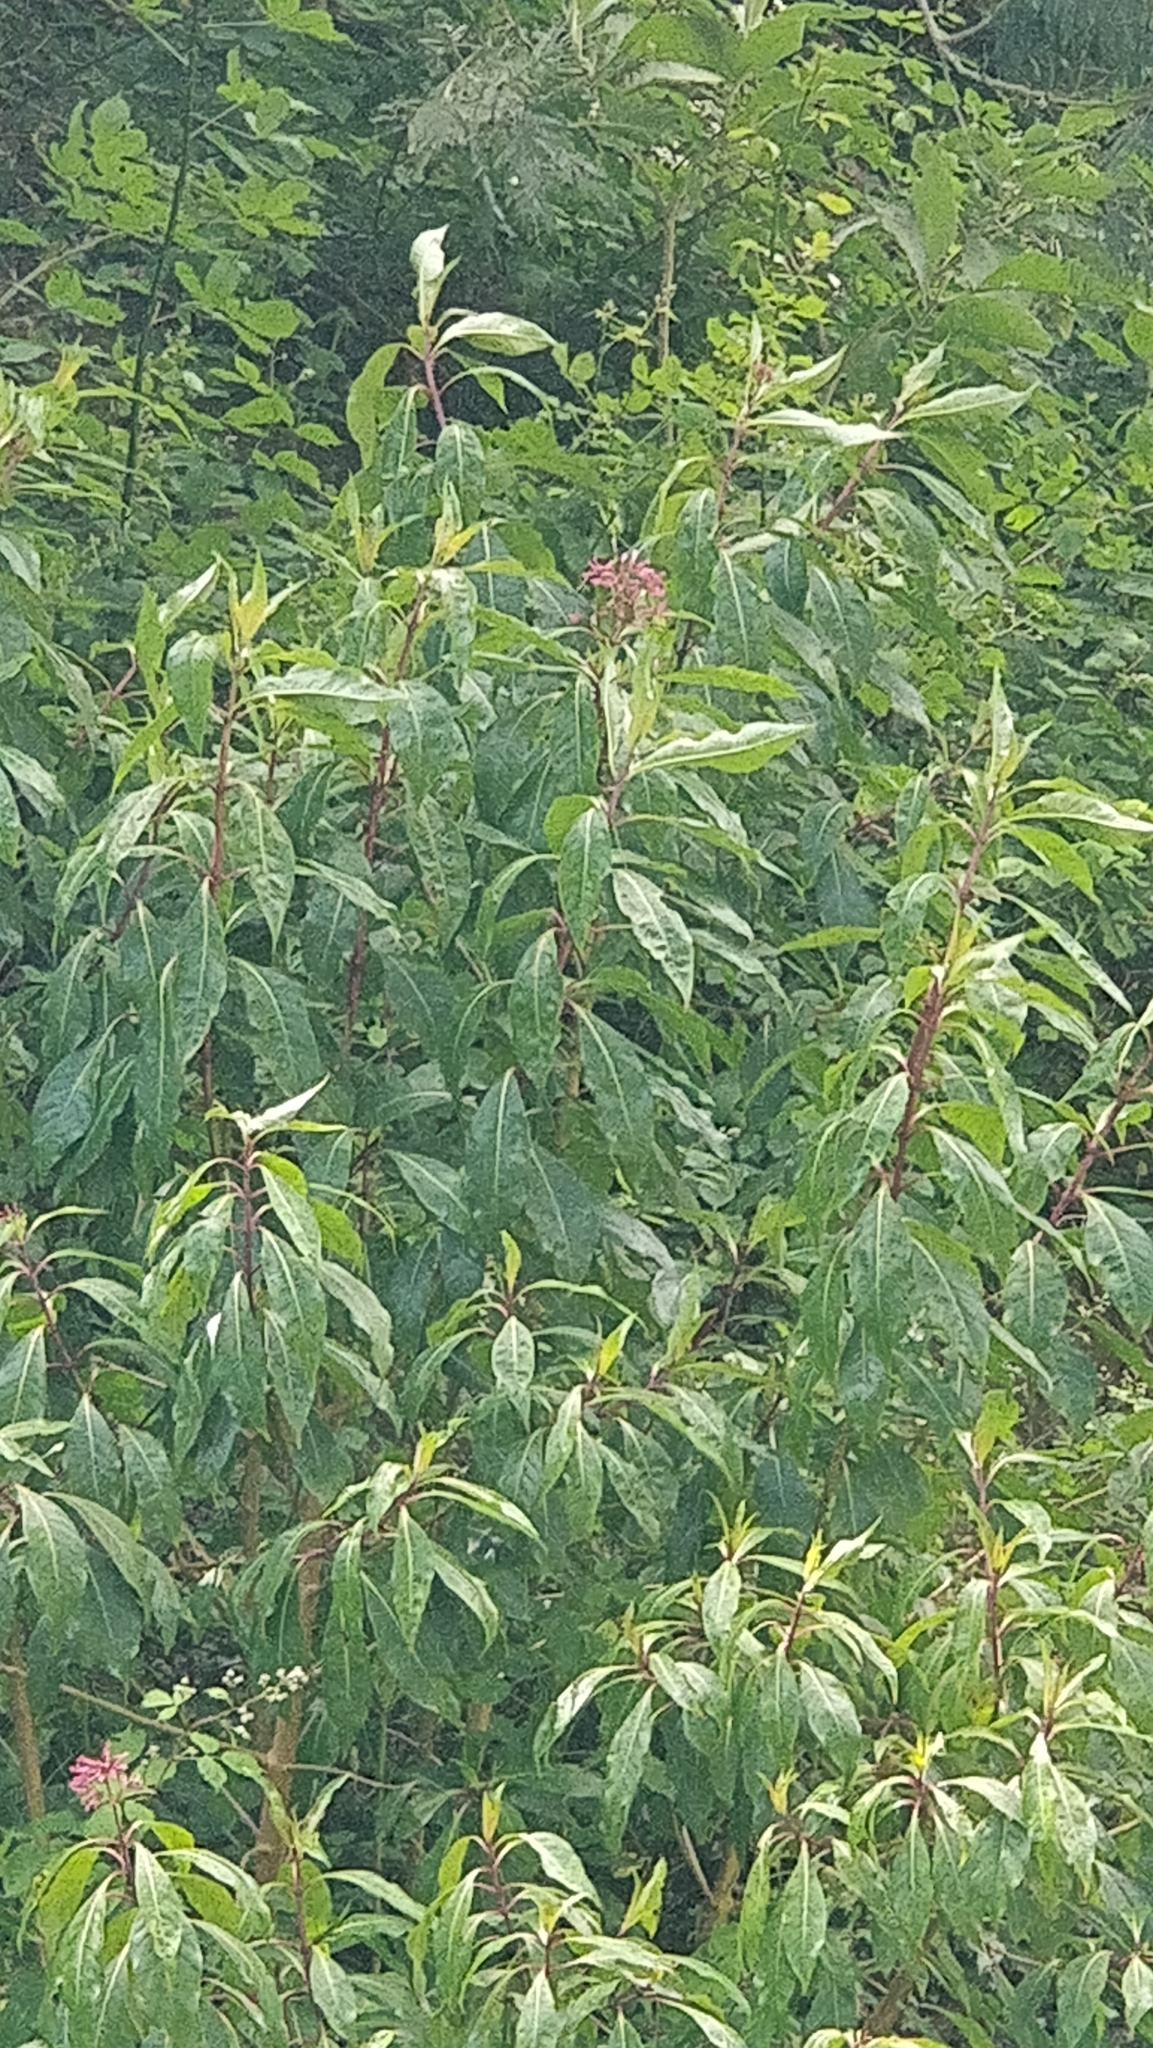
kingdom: Plantae
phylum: Tracheophyta
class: Magnoliopsida
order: Myrtales
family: Onagraceae
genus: Fuchsia
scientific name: Fuchsia arborescens
